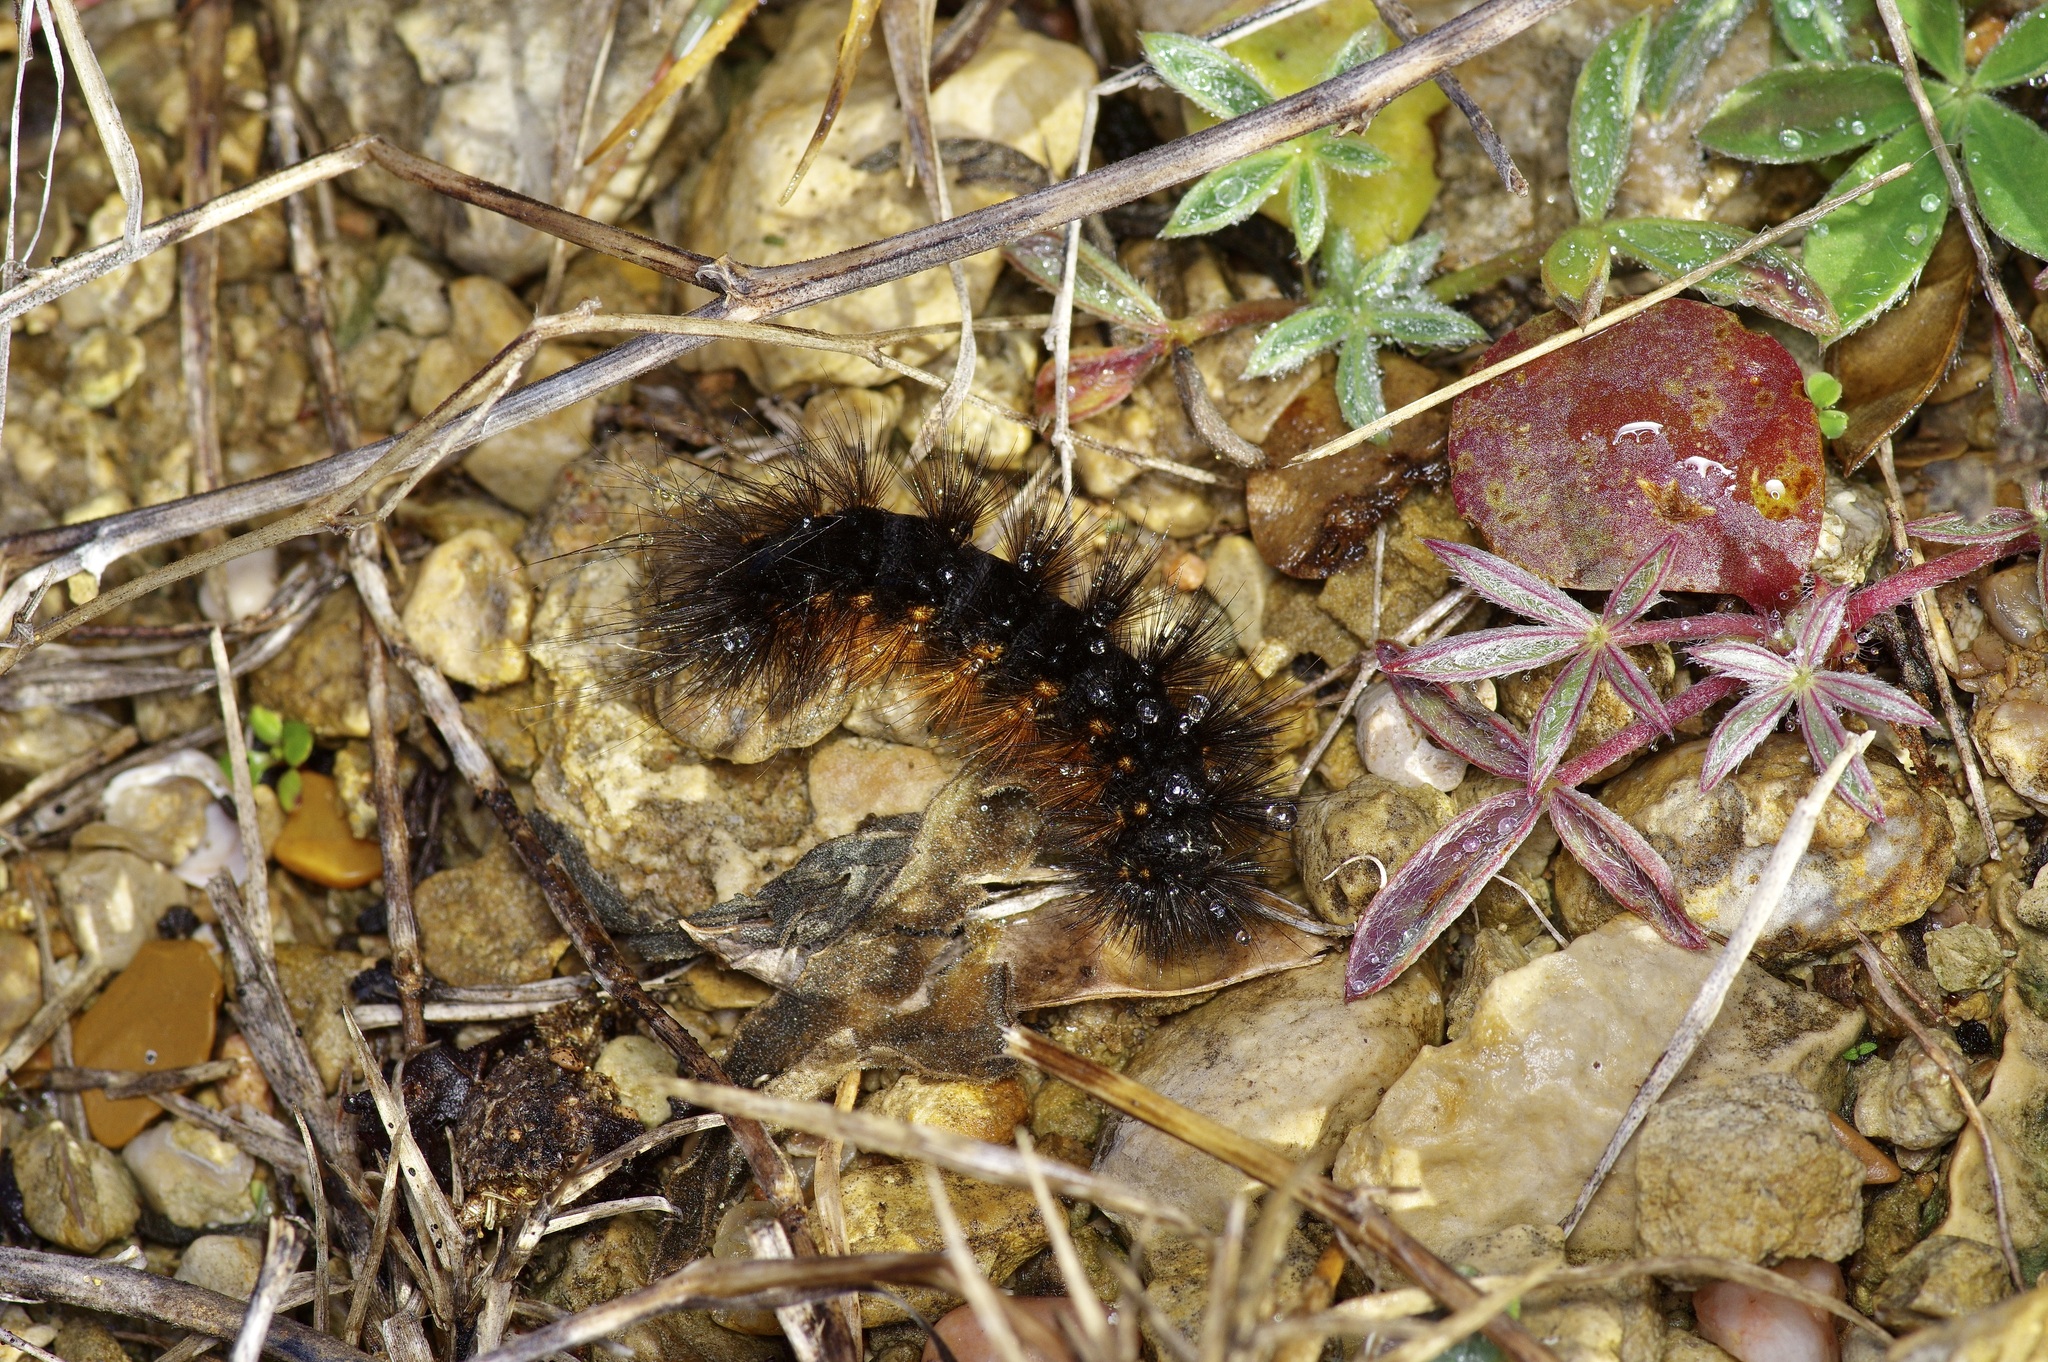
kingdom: Animalia
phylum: Arthropoda
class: Insecta
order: Lepidoptera
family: Erebidae
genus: Estigmene
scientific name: Estigmene acrea
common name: Salt marsh moth
